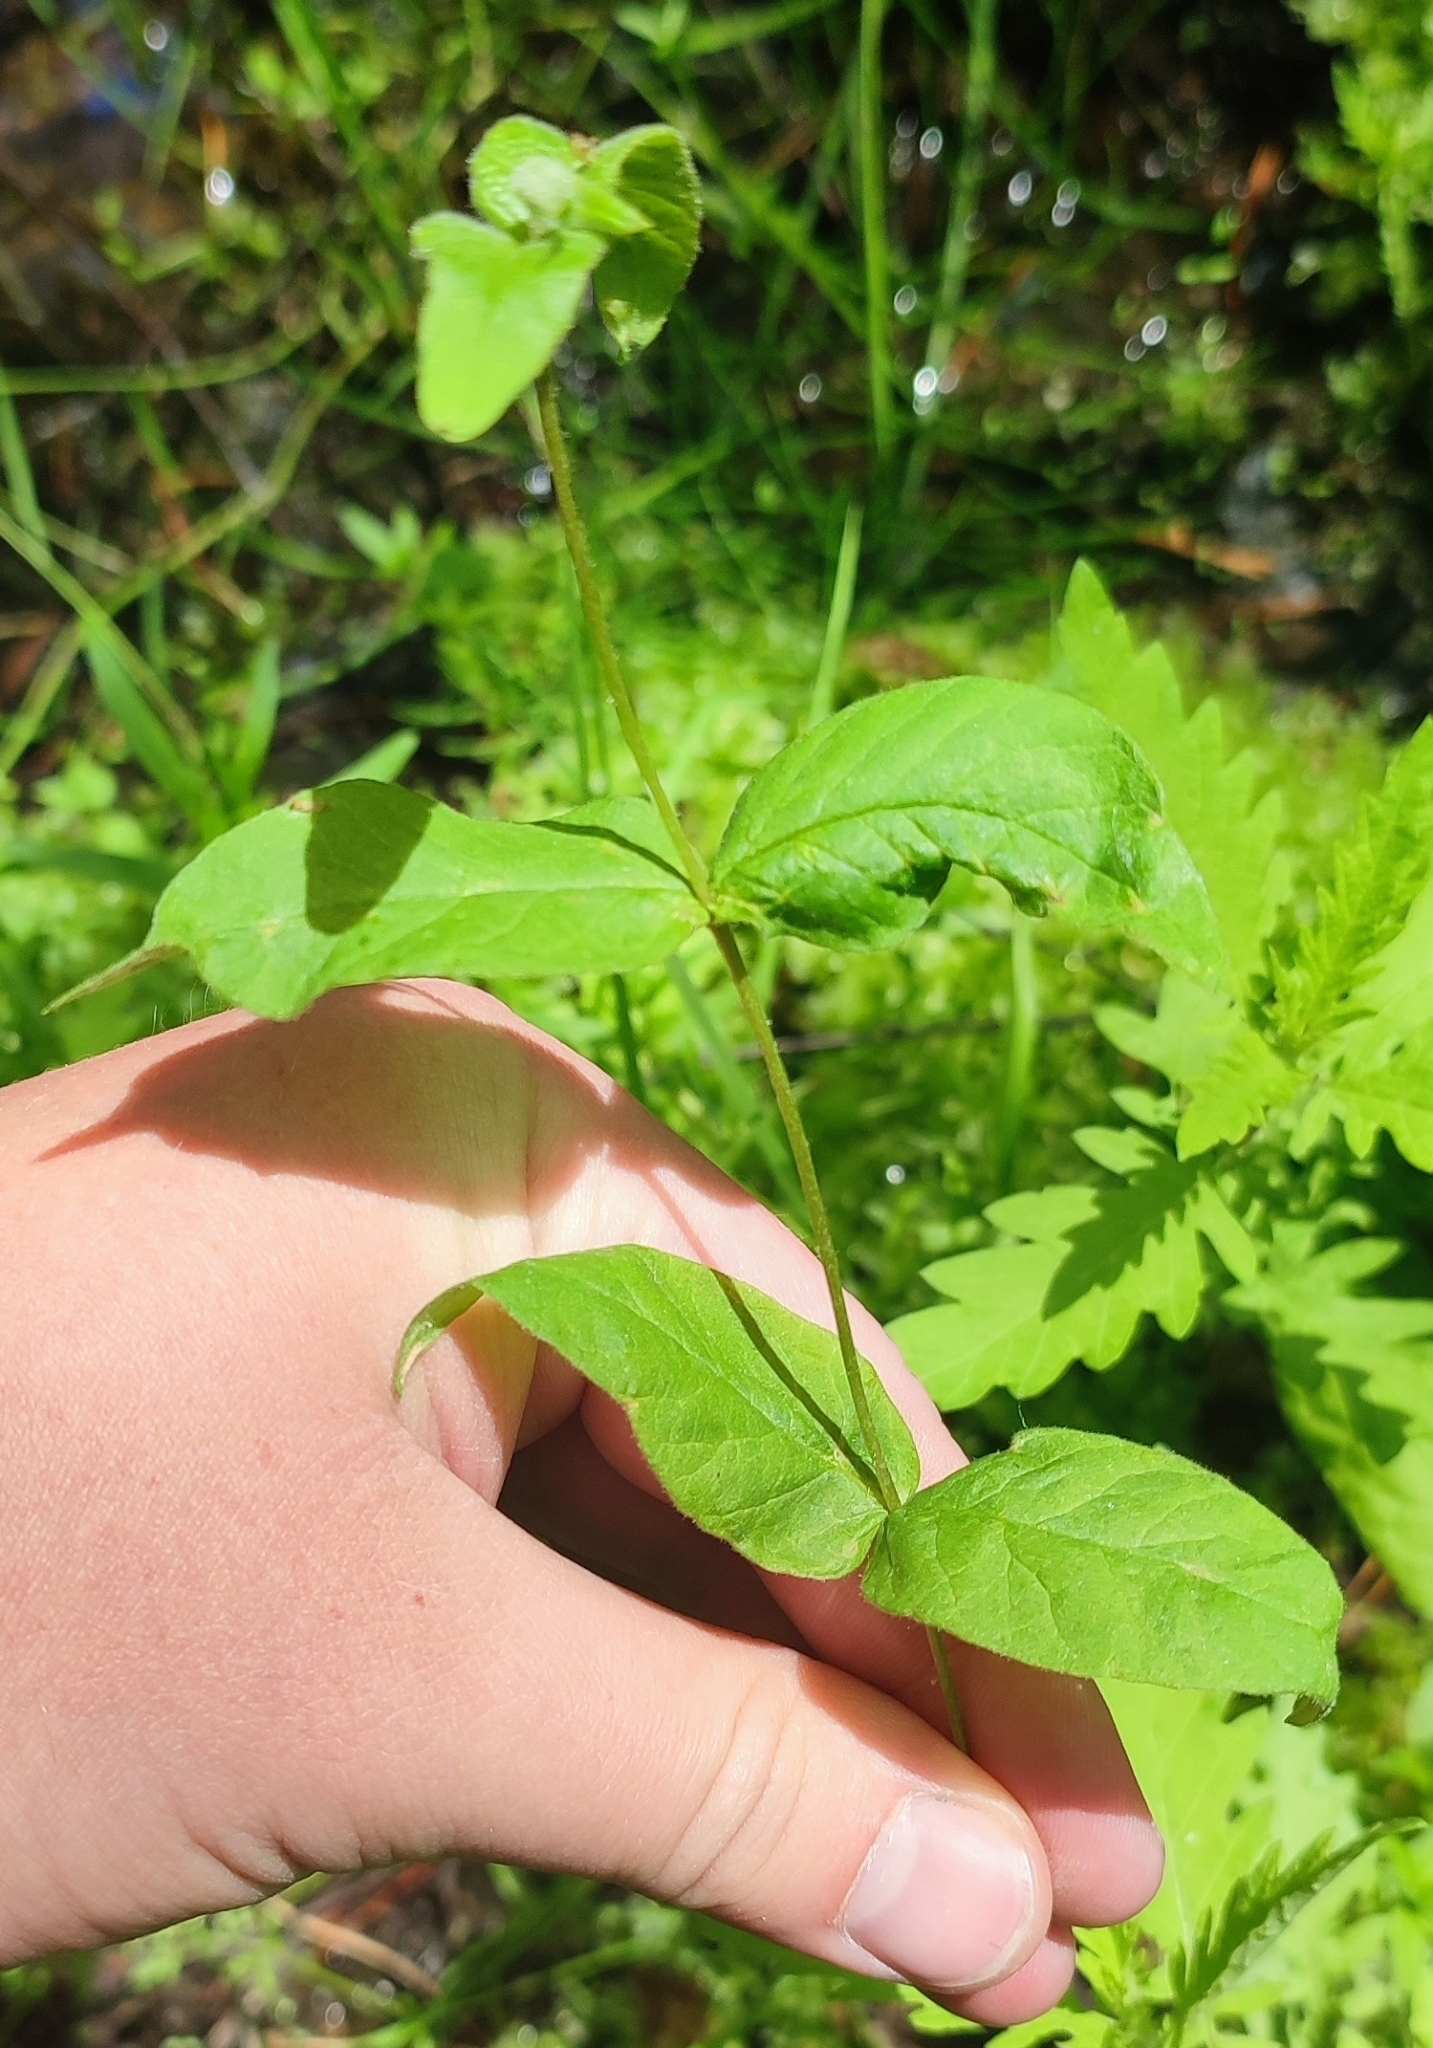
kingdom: Plantae
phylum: Tracheophyta
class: Magnoliopsida
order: Ericales
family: Primulaceae
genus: Lysimachia
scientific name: Lysimachia vulgaris
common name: Yellow loosestrife
